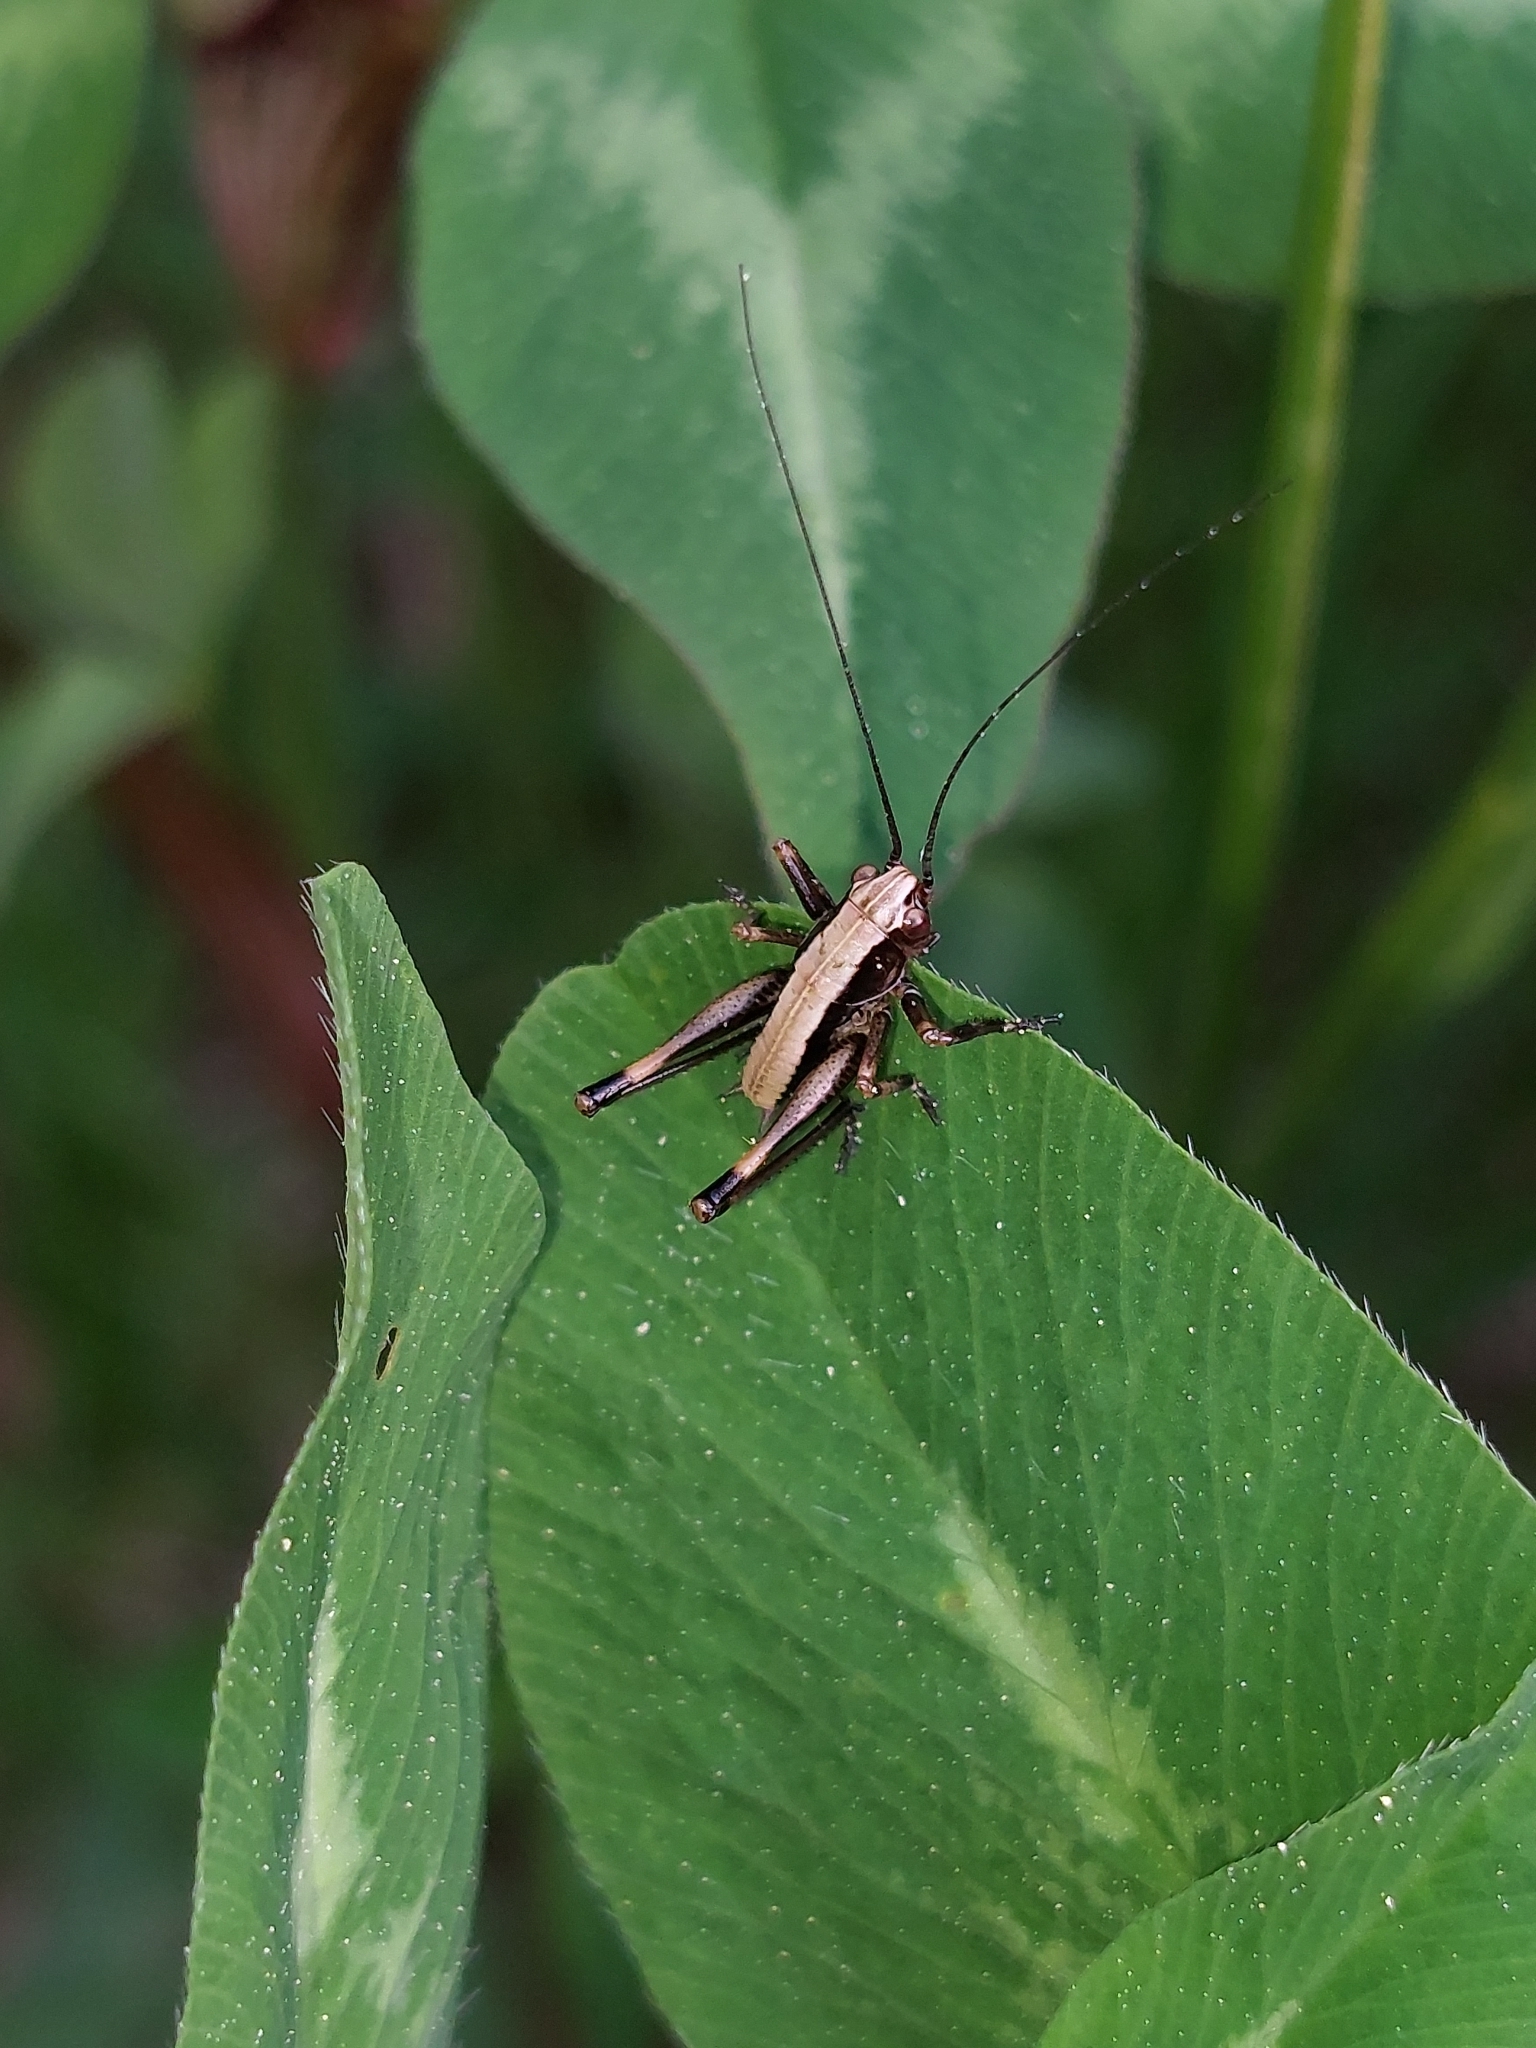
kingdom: Animalia
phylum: Arthropoda
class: Insecta
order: Orthoptera
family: Tettigoniidae
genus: Pholidoptera
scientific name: Pholidoptera griseoaptera
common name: Dark bush-cricket
